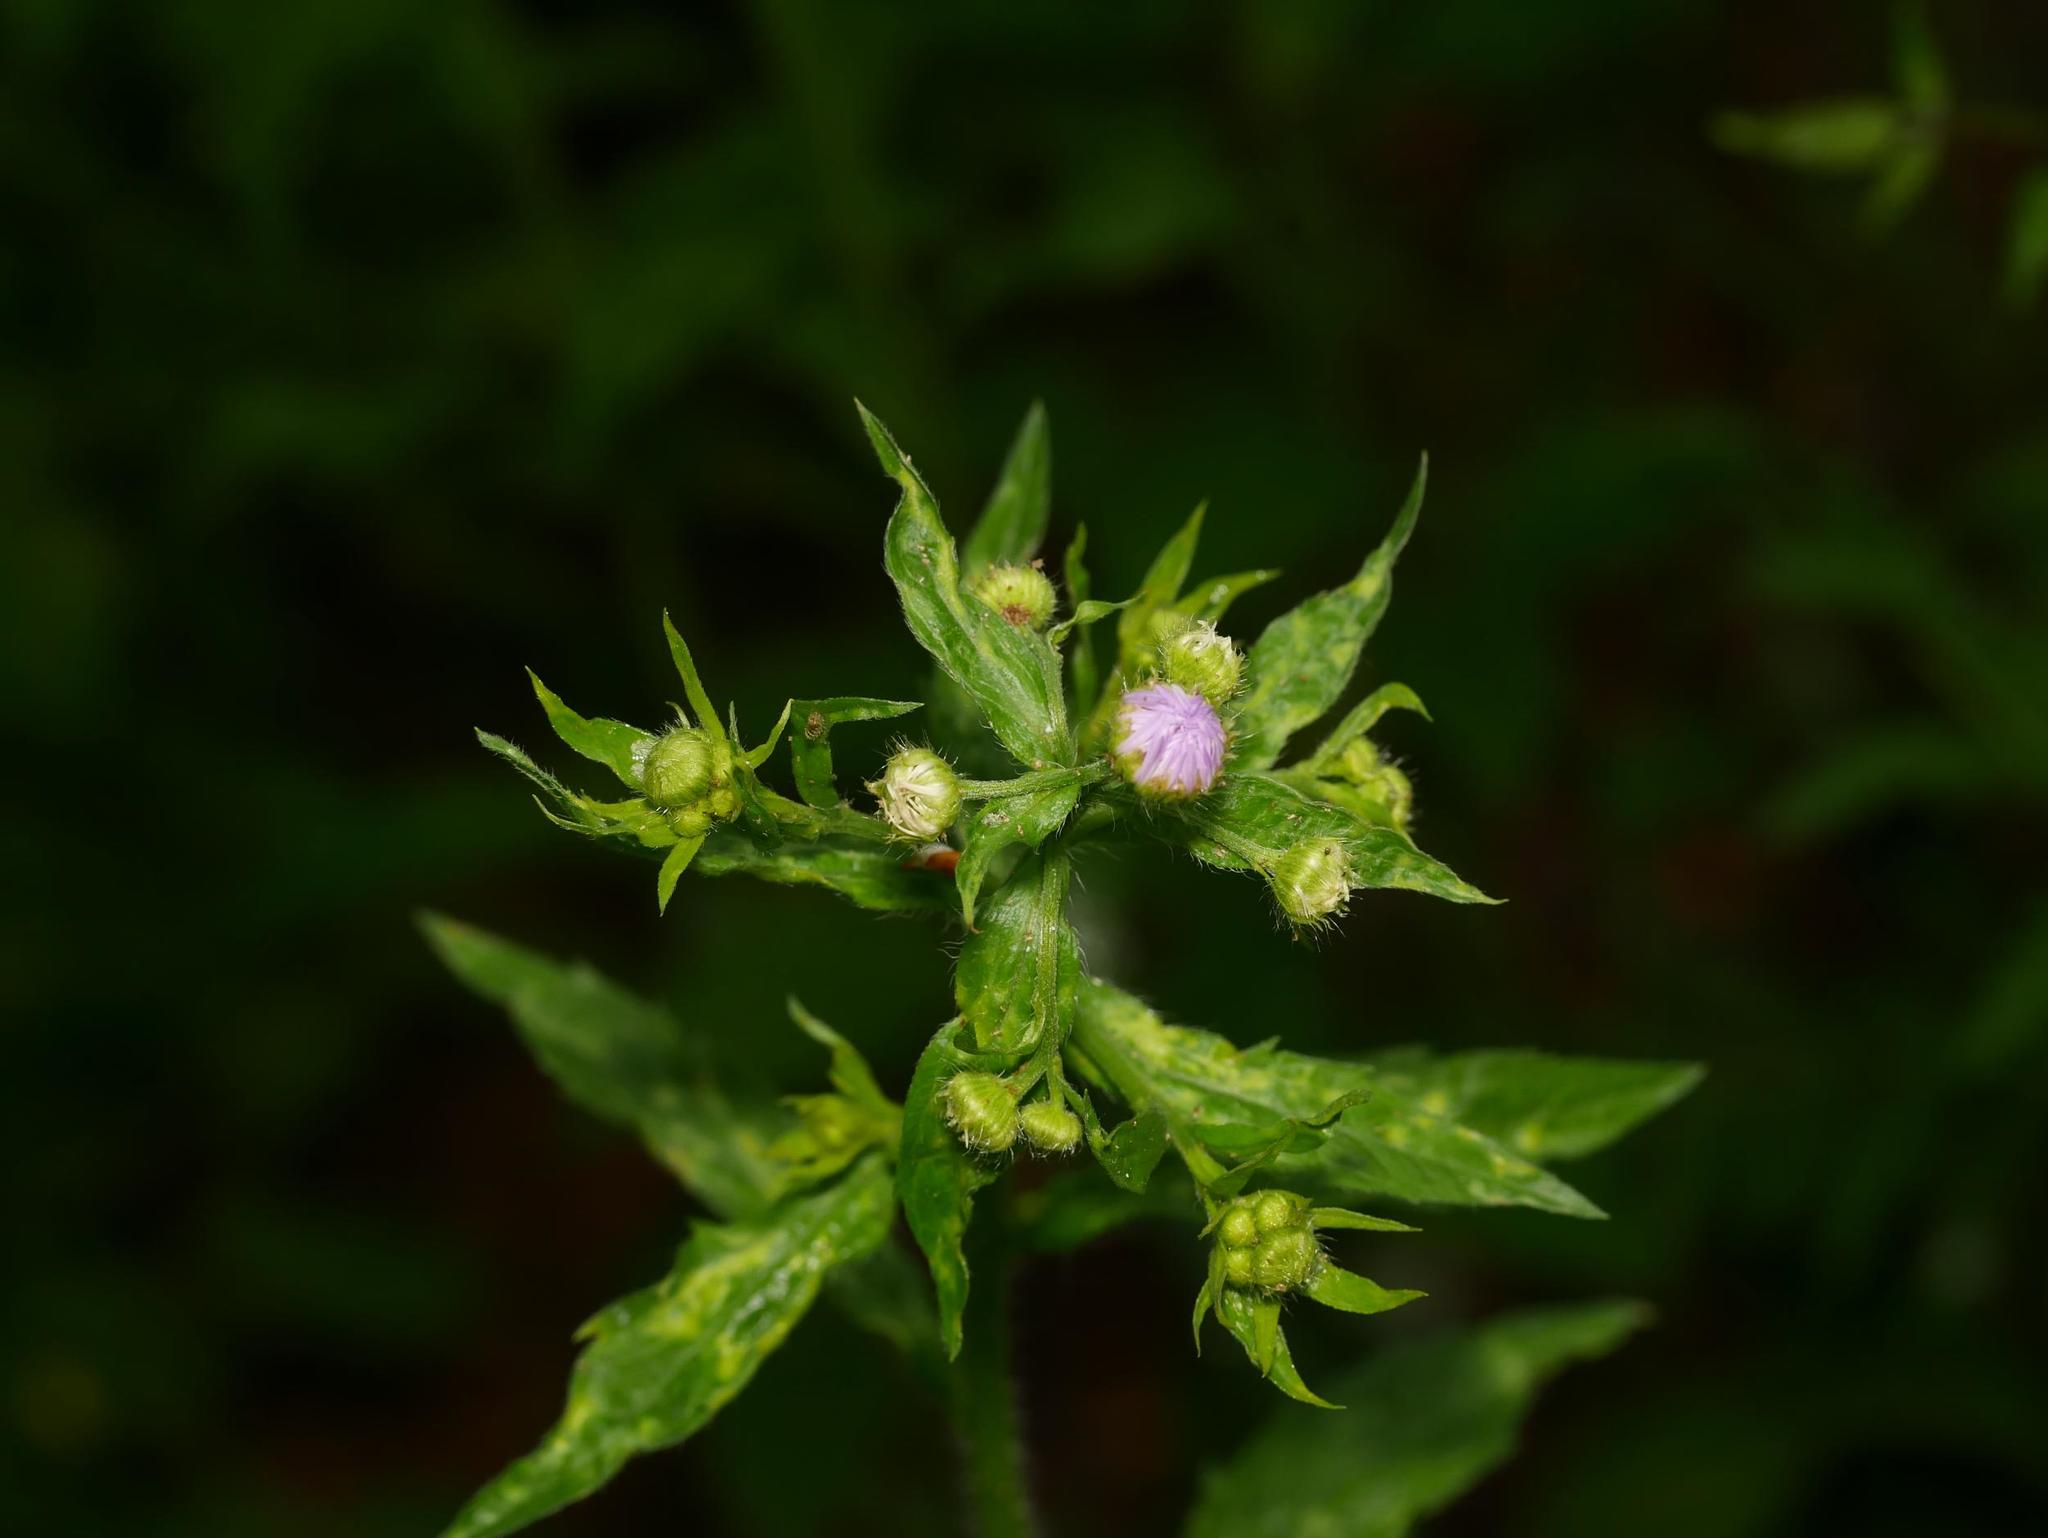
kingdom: Plantae
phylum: Tracheophyta
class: Magnoliopsida
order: Asterales
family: Asteraceae
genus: Erigeron
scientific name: Erigeron annuus
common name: Tall fleabane
